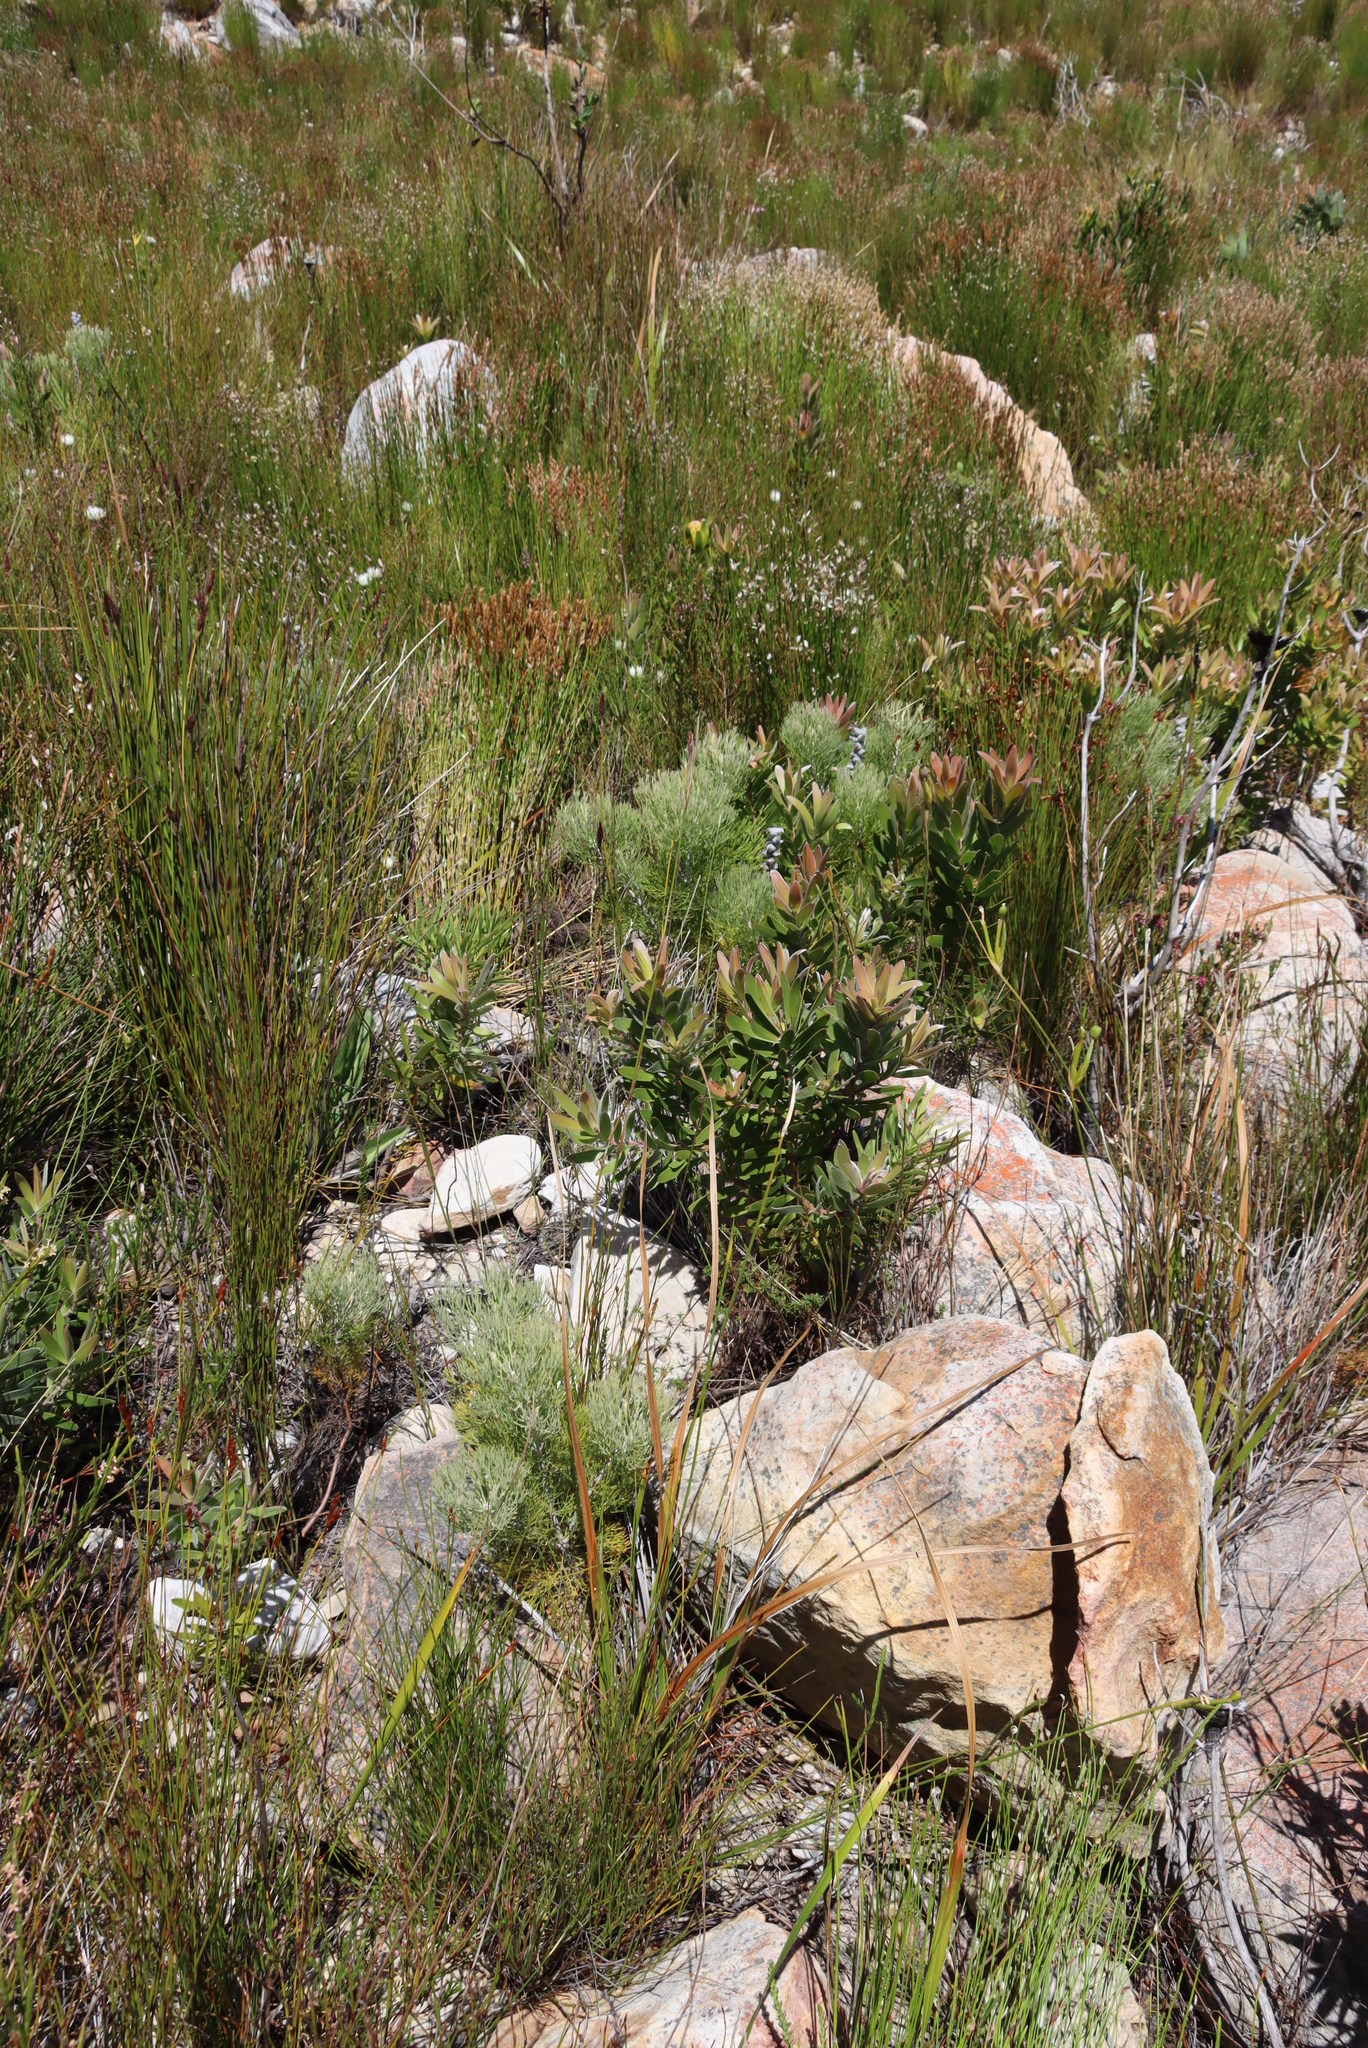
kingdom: Plantae
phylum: Tracheophyta
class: Magnoliopsida
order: Proteales
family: Proteaceae
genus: Paranomus
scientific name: Paranomus spicatus
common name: Kogelberg sceptre
